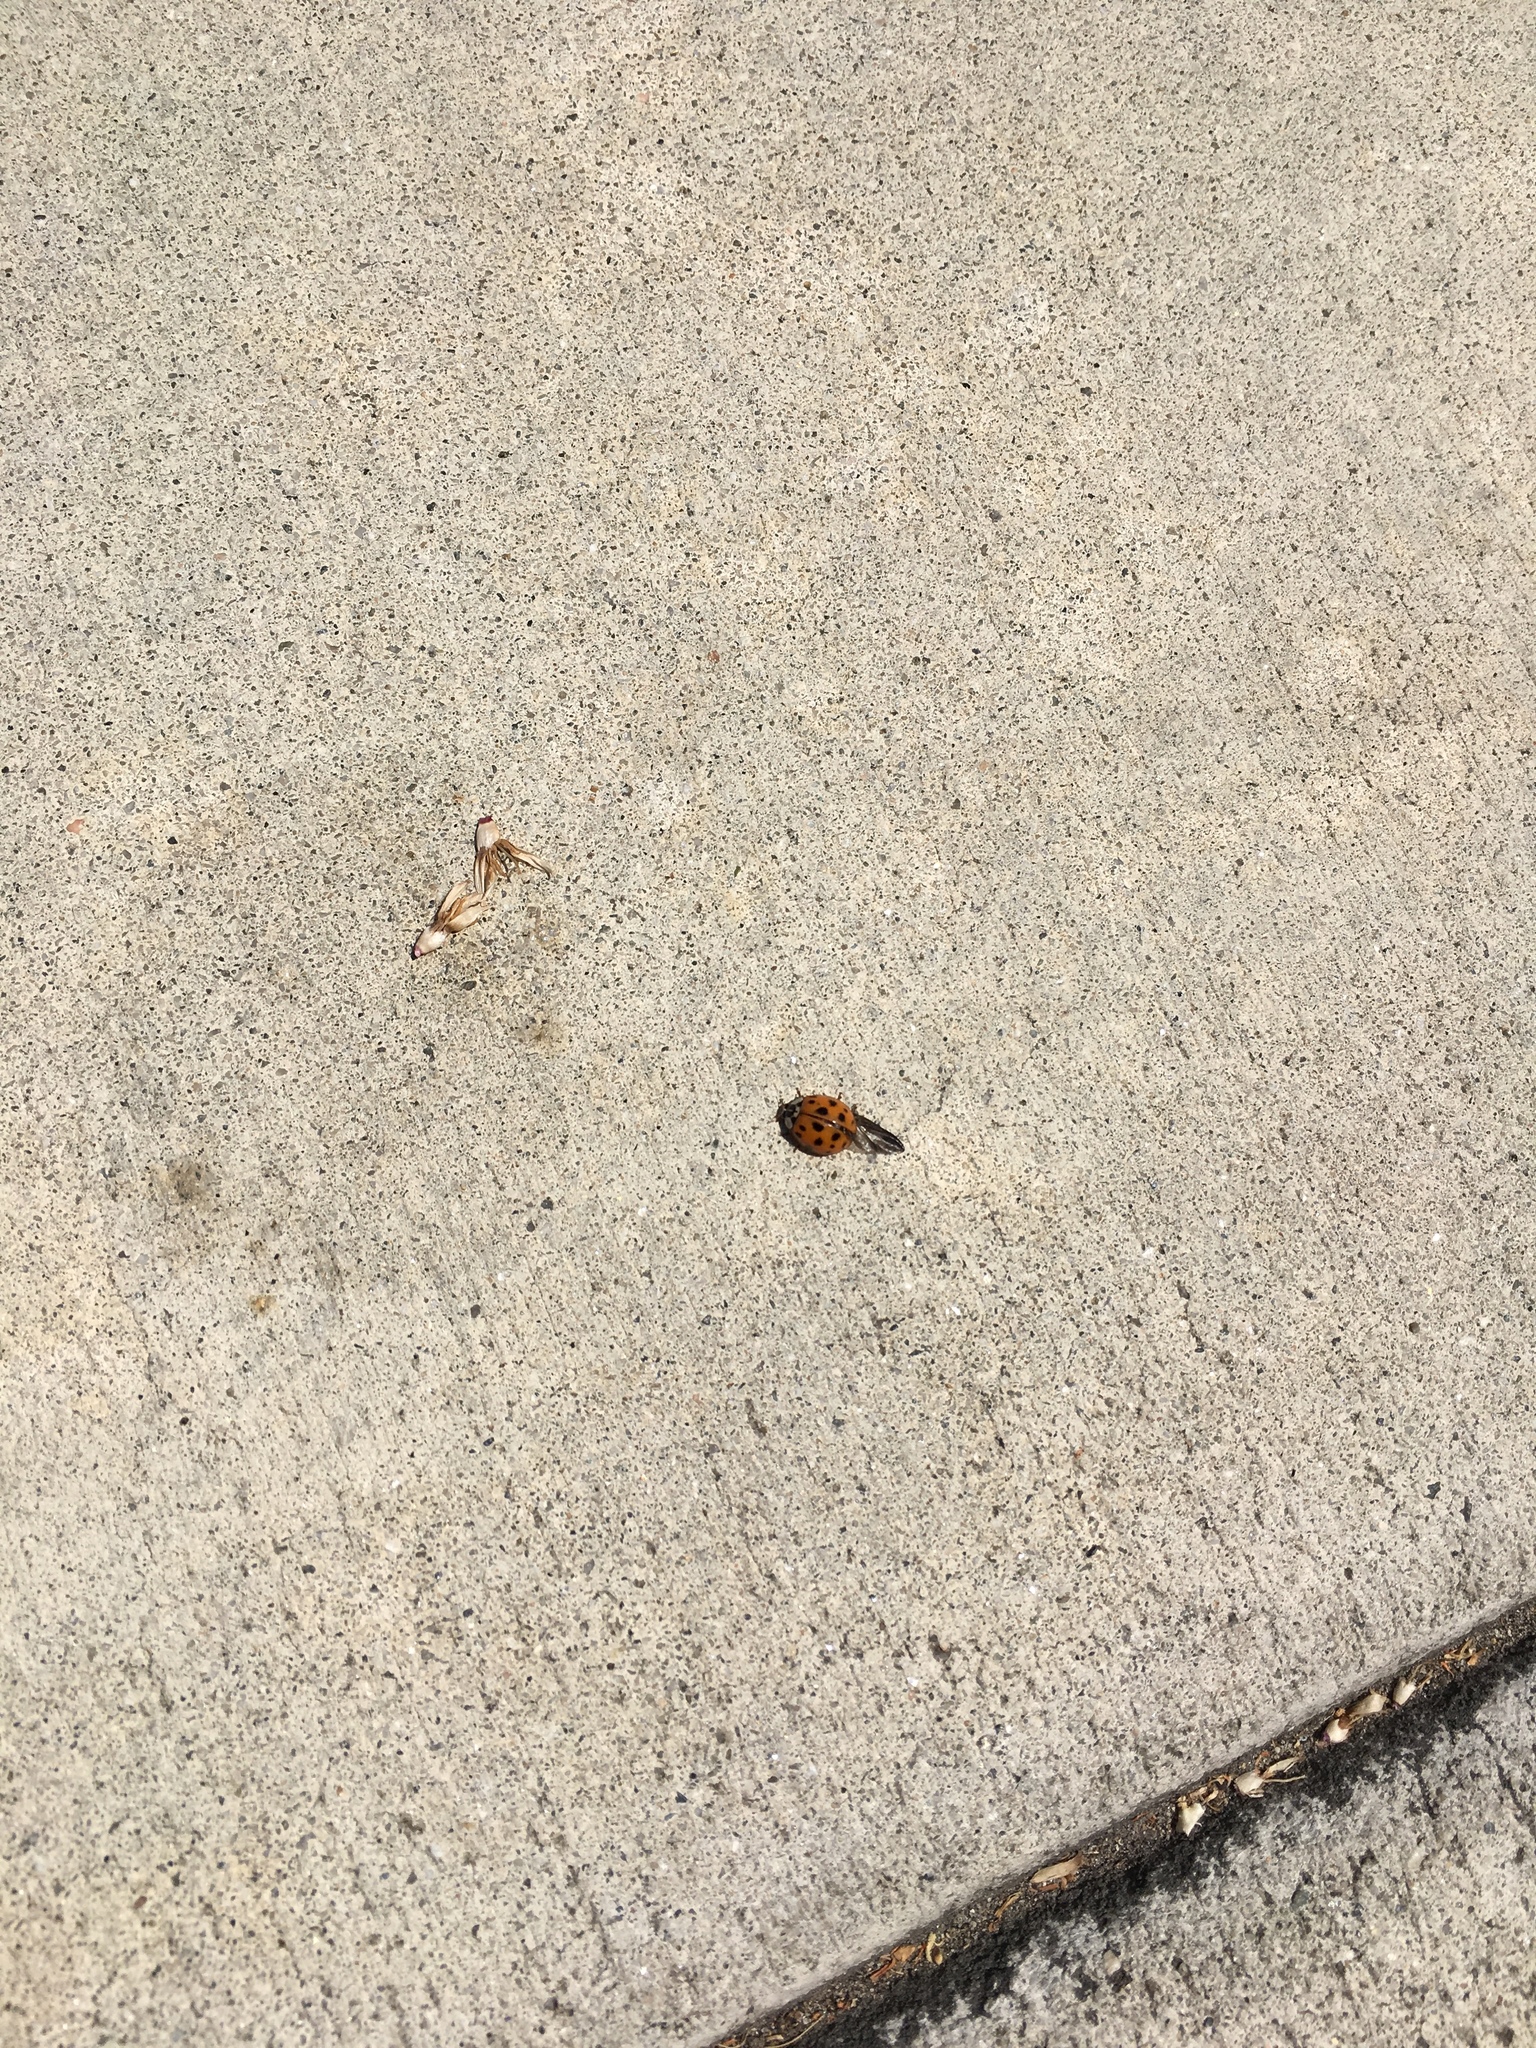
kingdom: Animalia
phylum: Arthropoda
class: Insecta
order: Coleoptera
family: Coccinellidae
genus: Harmonia
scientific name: Harmonia axyridis
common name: Harlequin ladybird
